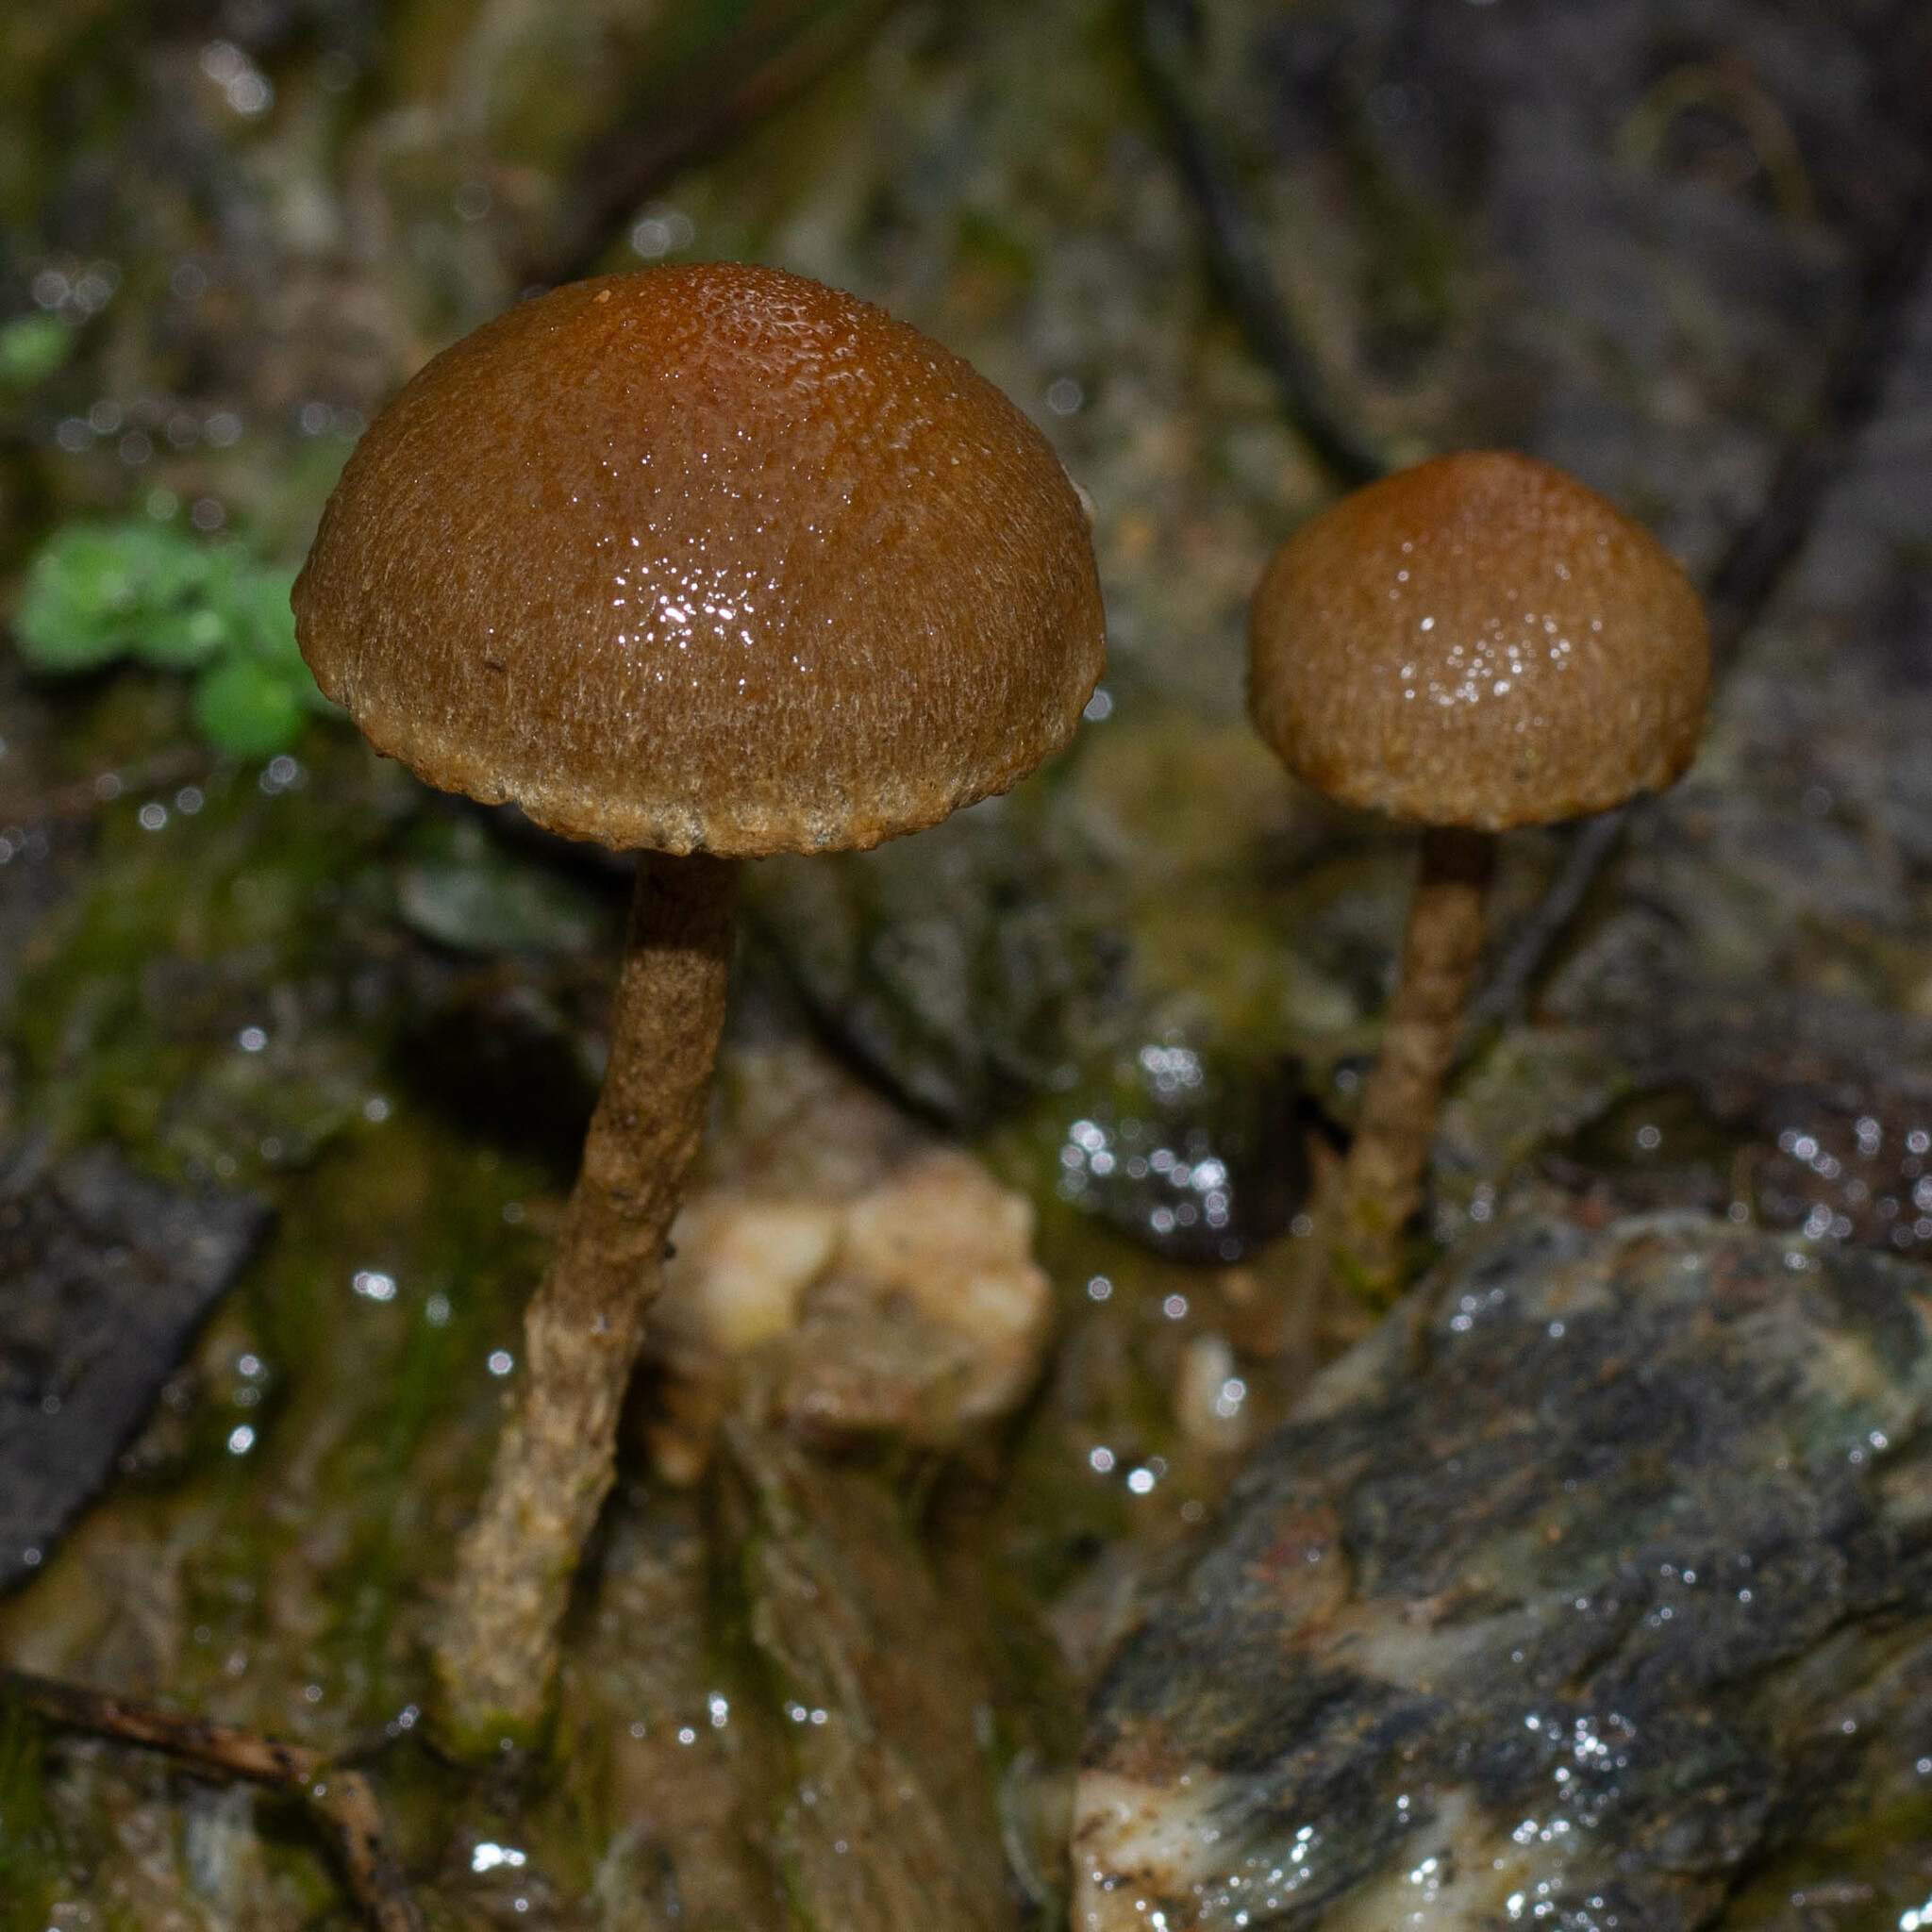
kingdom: Fungi
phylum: Basidiomycota
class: Agaricomycetes
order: Agaricales
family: Psathyrellaceae
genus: Lacrymaria
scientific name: Lacrymaria lacrymabunda
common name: Weeping widow
